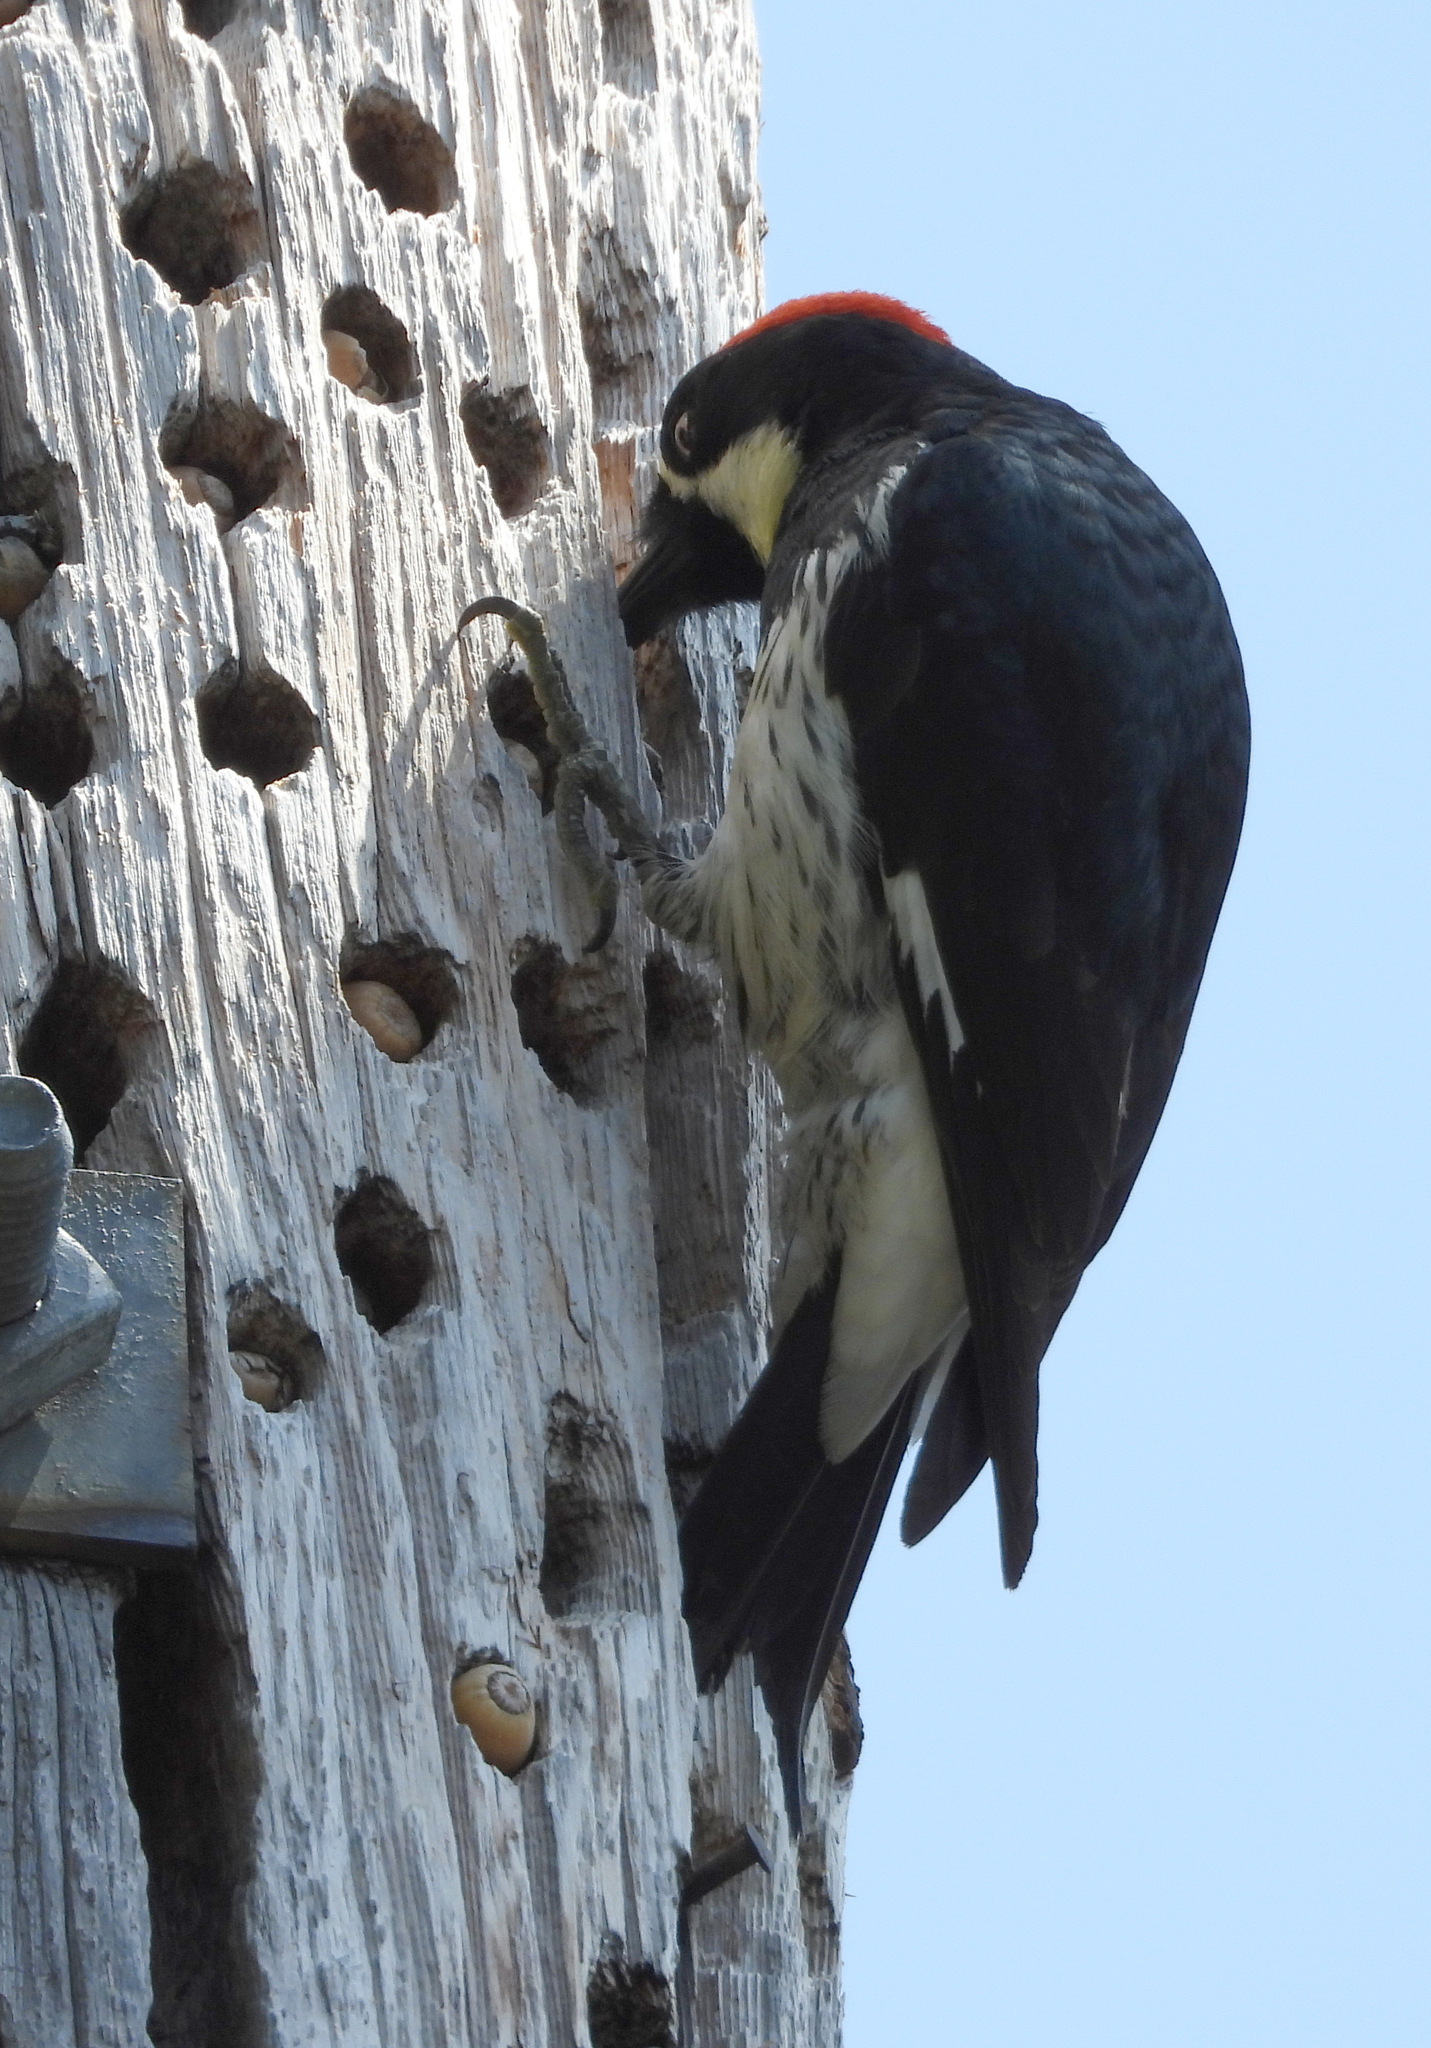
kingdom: Animalia
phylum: Chordata
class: Aves
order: Piciformes
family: Picidae
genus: Melanerpes
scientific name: Melanerpes formicivorus
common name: Acorn woodpecker
